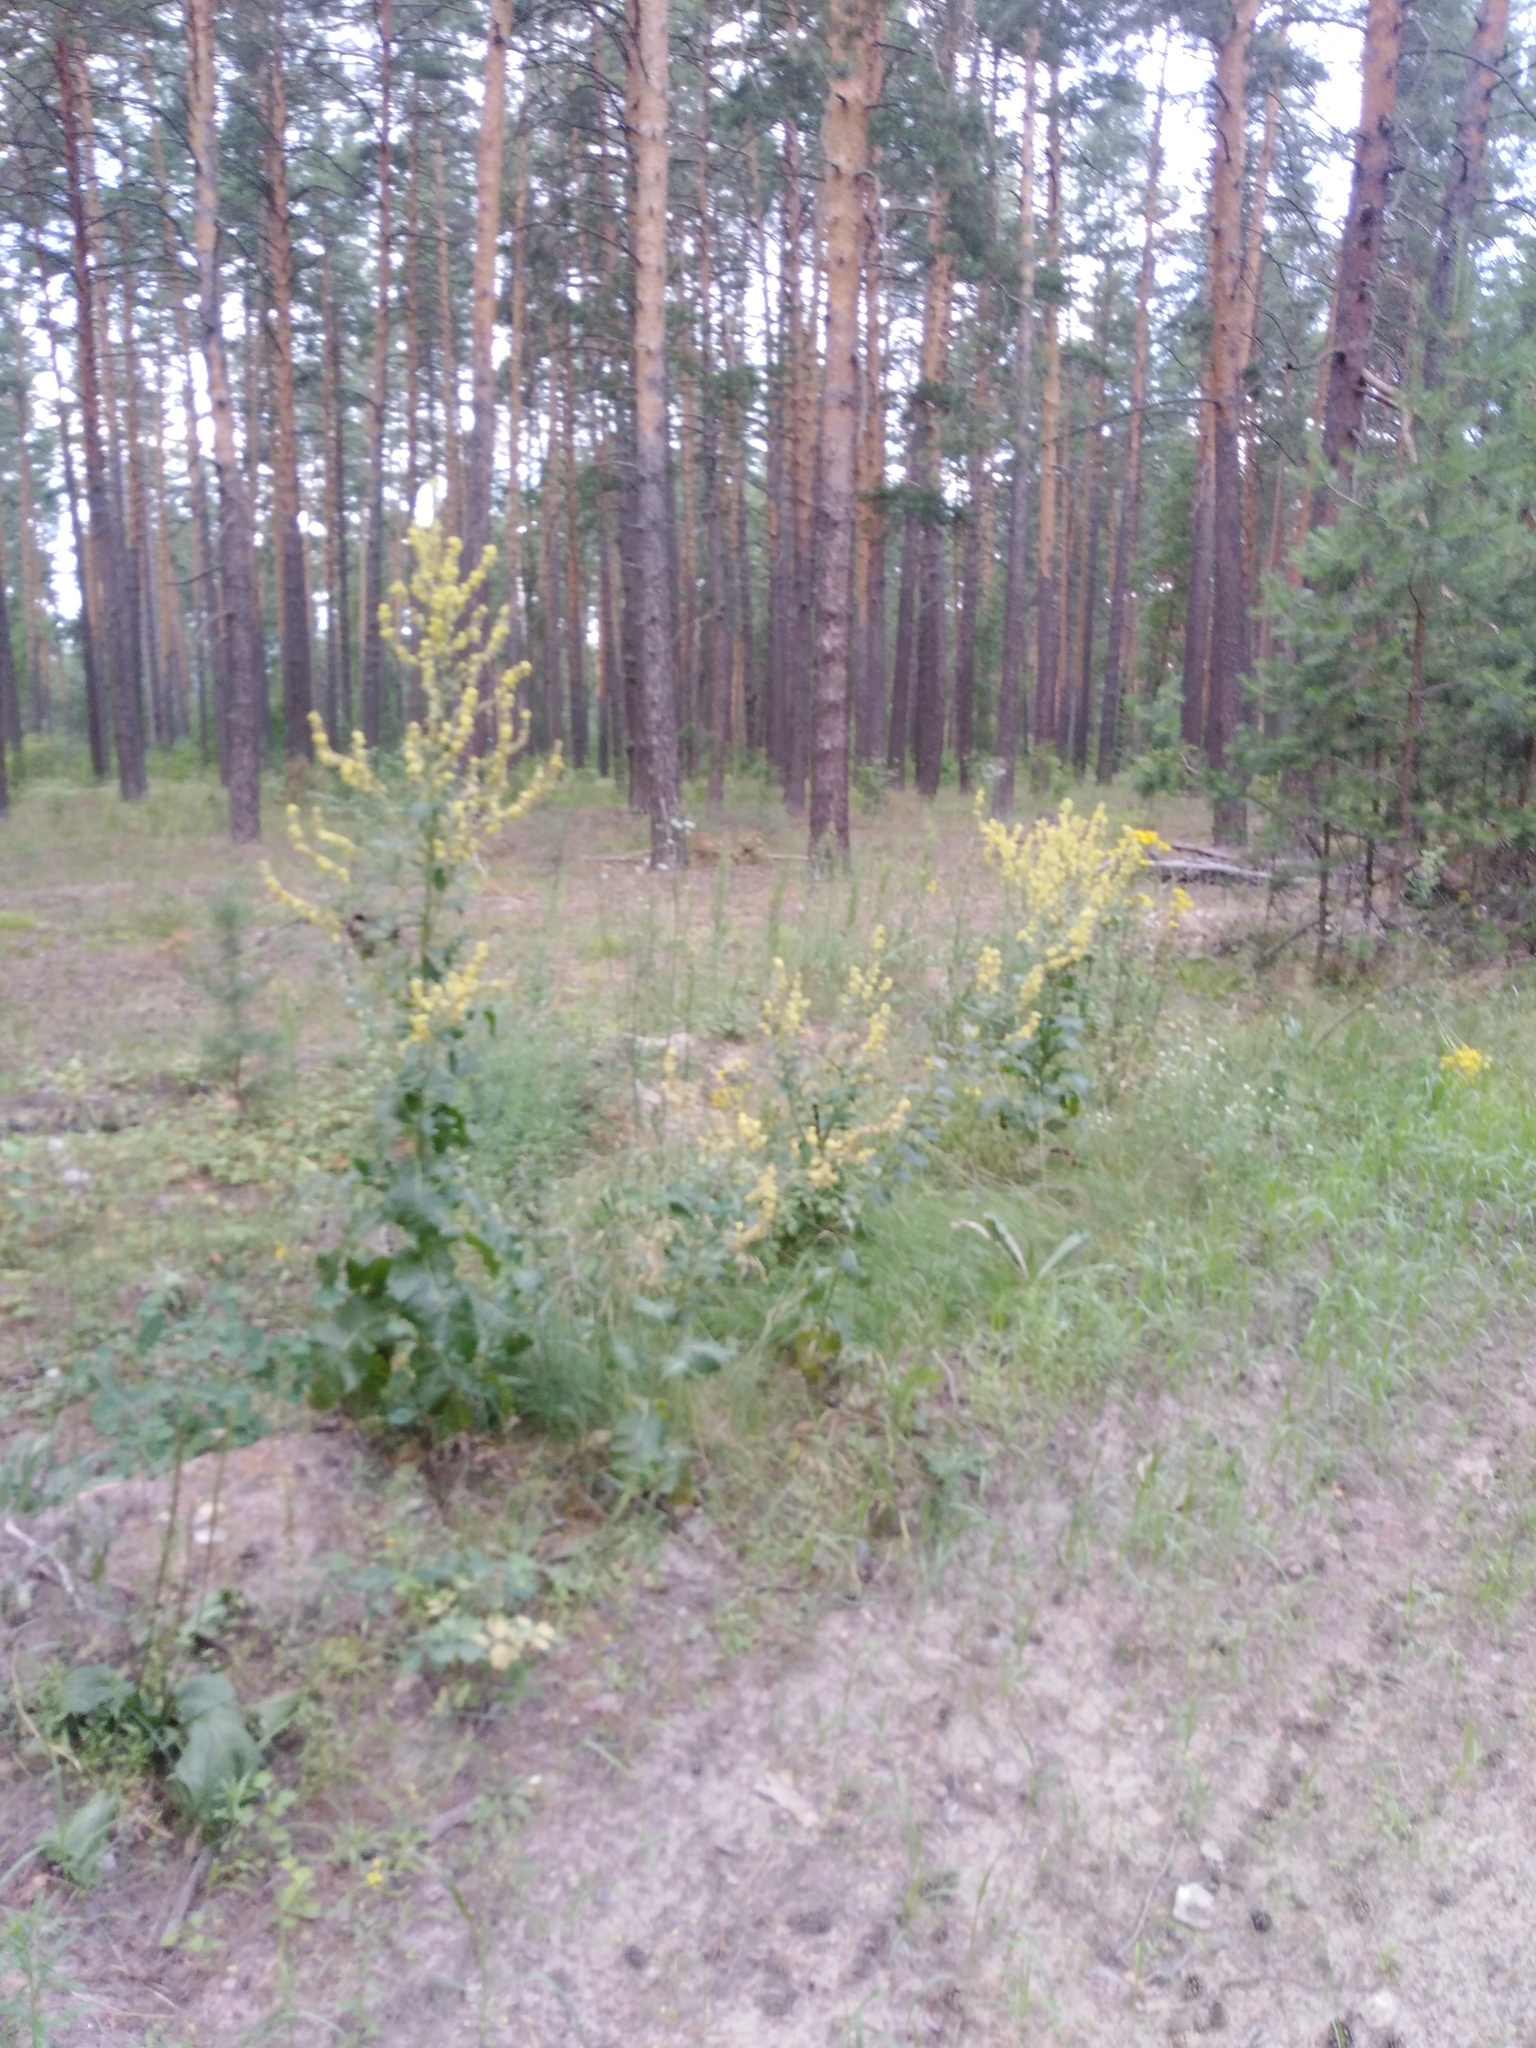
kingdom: Plantae
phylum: Tracheophyta
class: Magnoliopsida
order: Lamiales
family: Scrophulariaceae
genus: Verbascum
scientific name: Verbascum lychnitis
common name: White mullein
